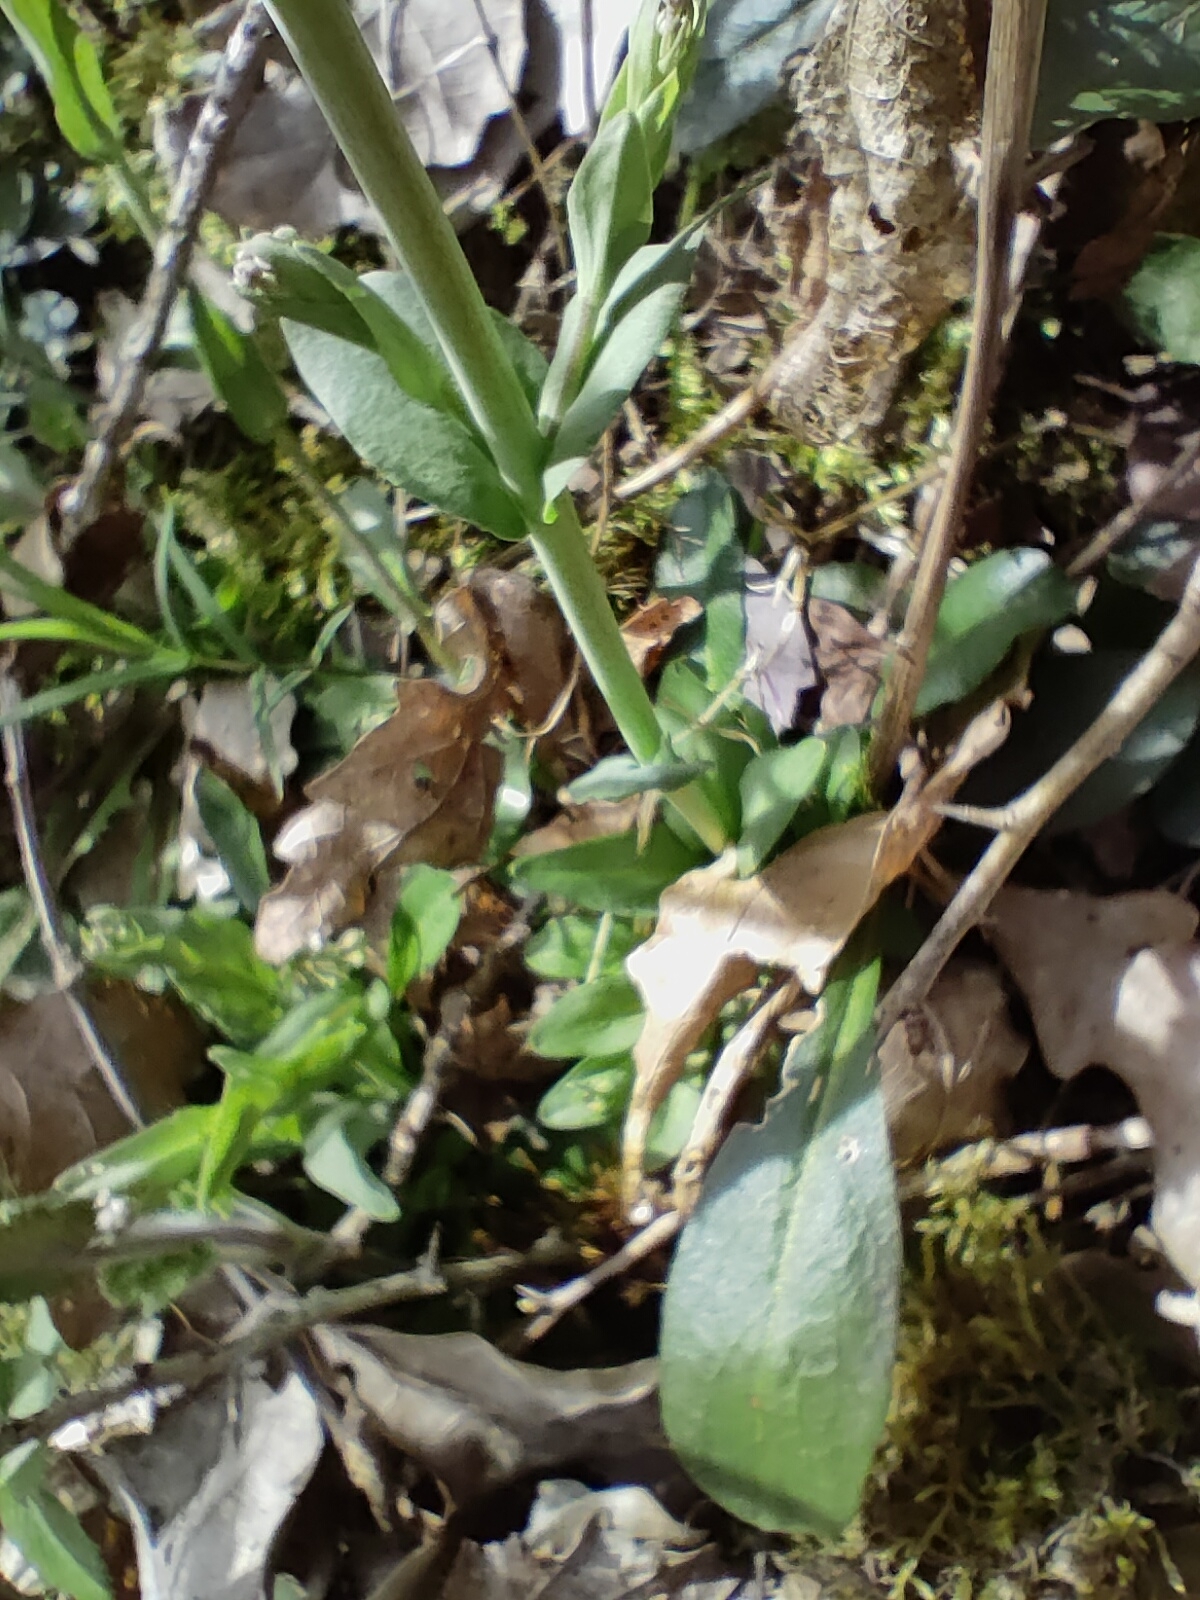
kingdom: Plantae
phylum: Tracheophyta
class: Magnoliopsida
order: Brassicales
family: Brassicaceae
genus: Noccaea
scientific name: Noccaea caerulescens
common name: Alpine pennycress
